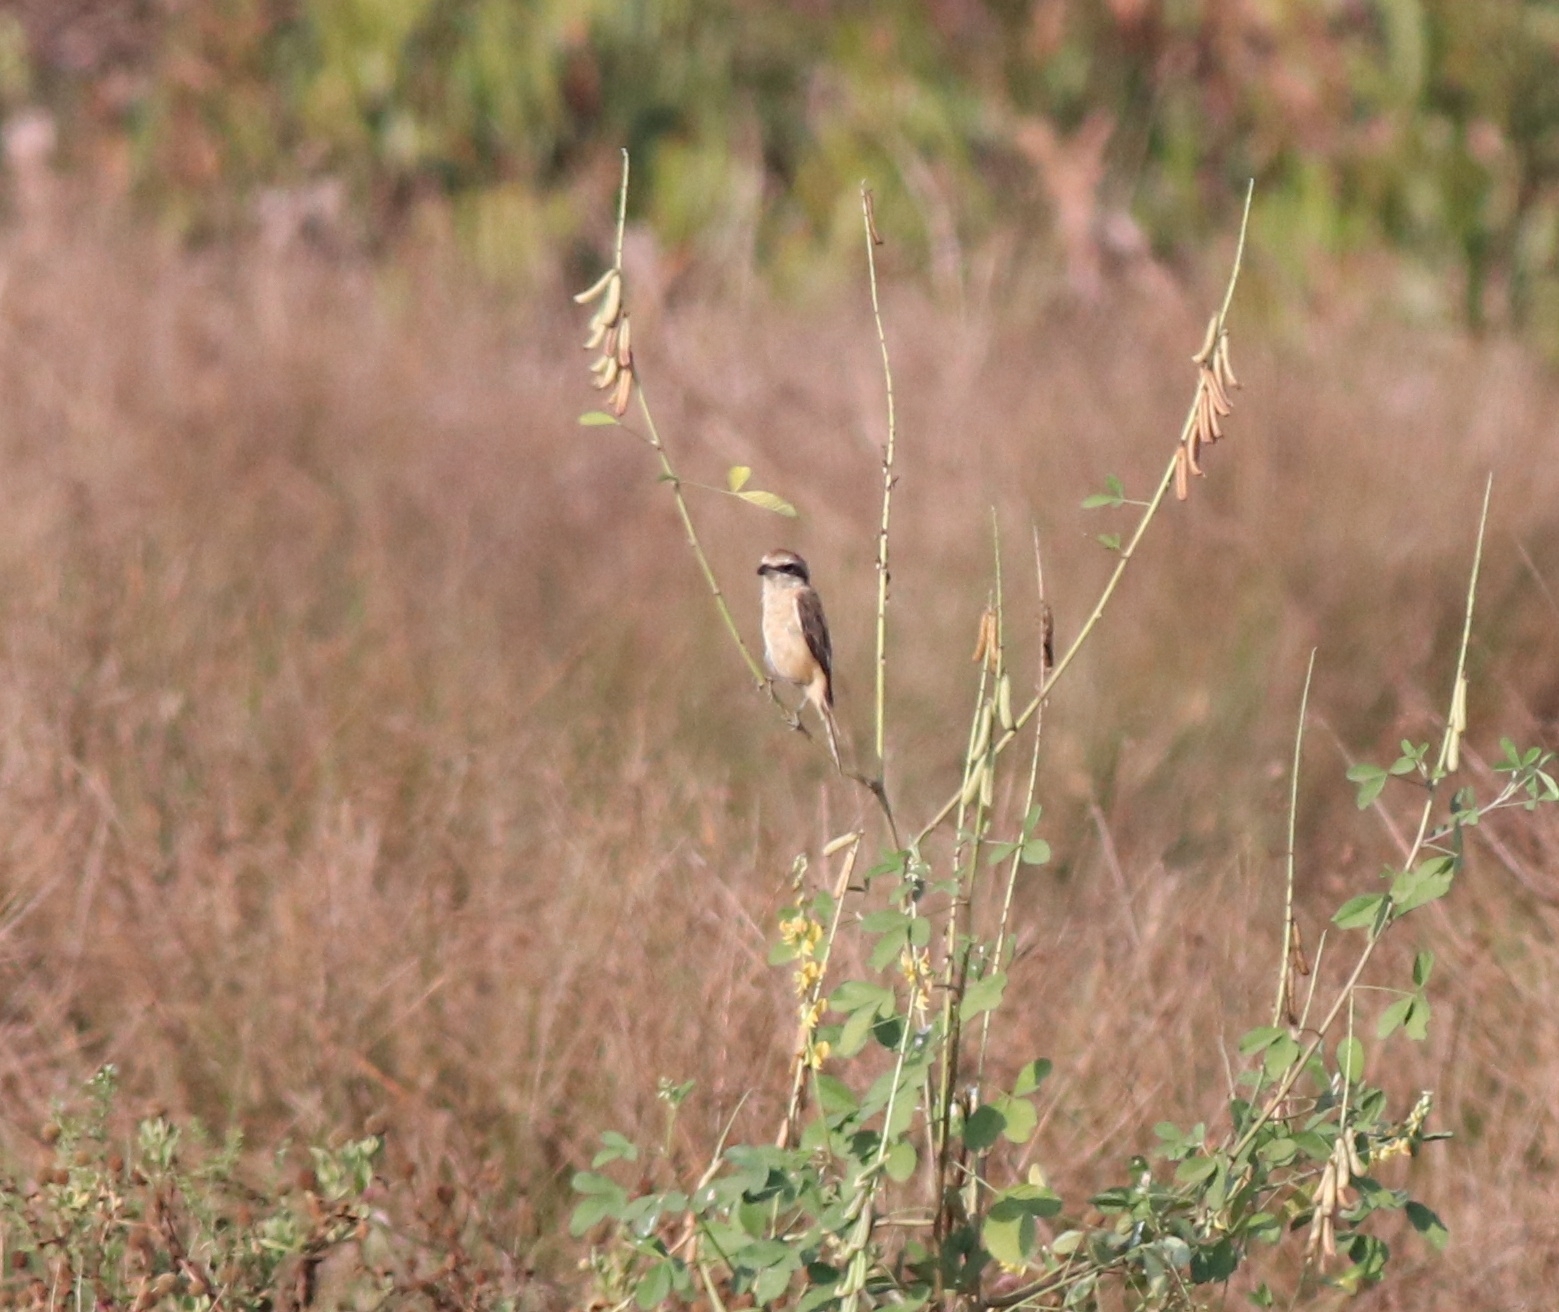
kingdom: Animalia
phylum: Chordata
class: Aves
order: Passeriformes
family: Laniidae
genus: Lanius
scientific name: Lanius cristatus
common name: Brown shrike
